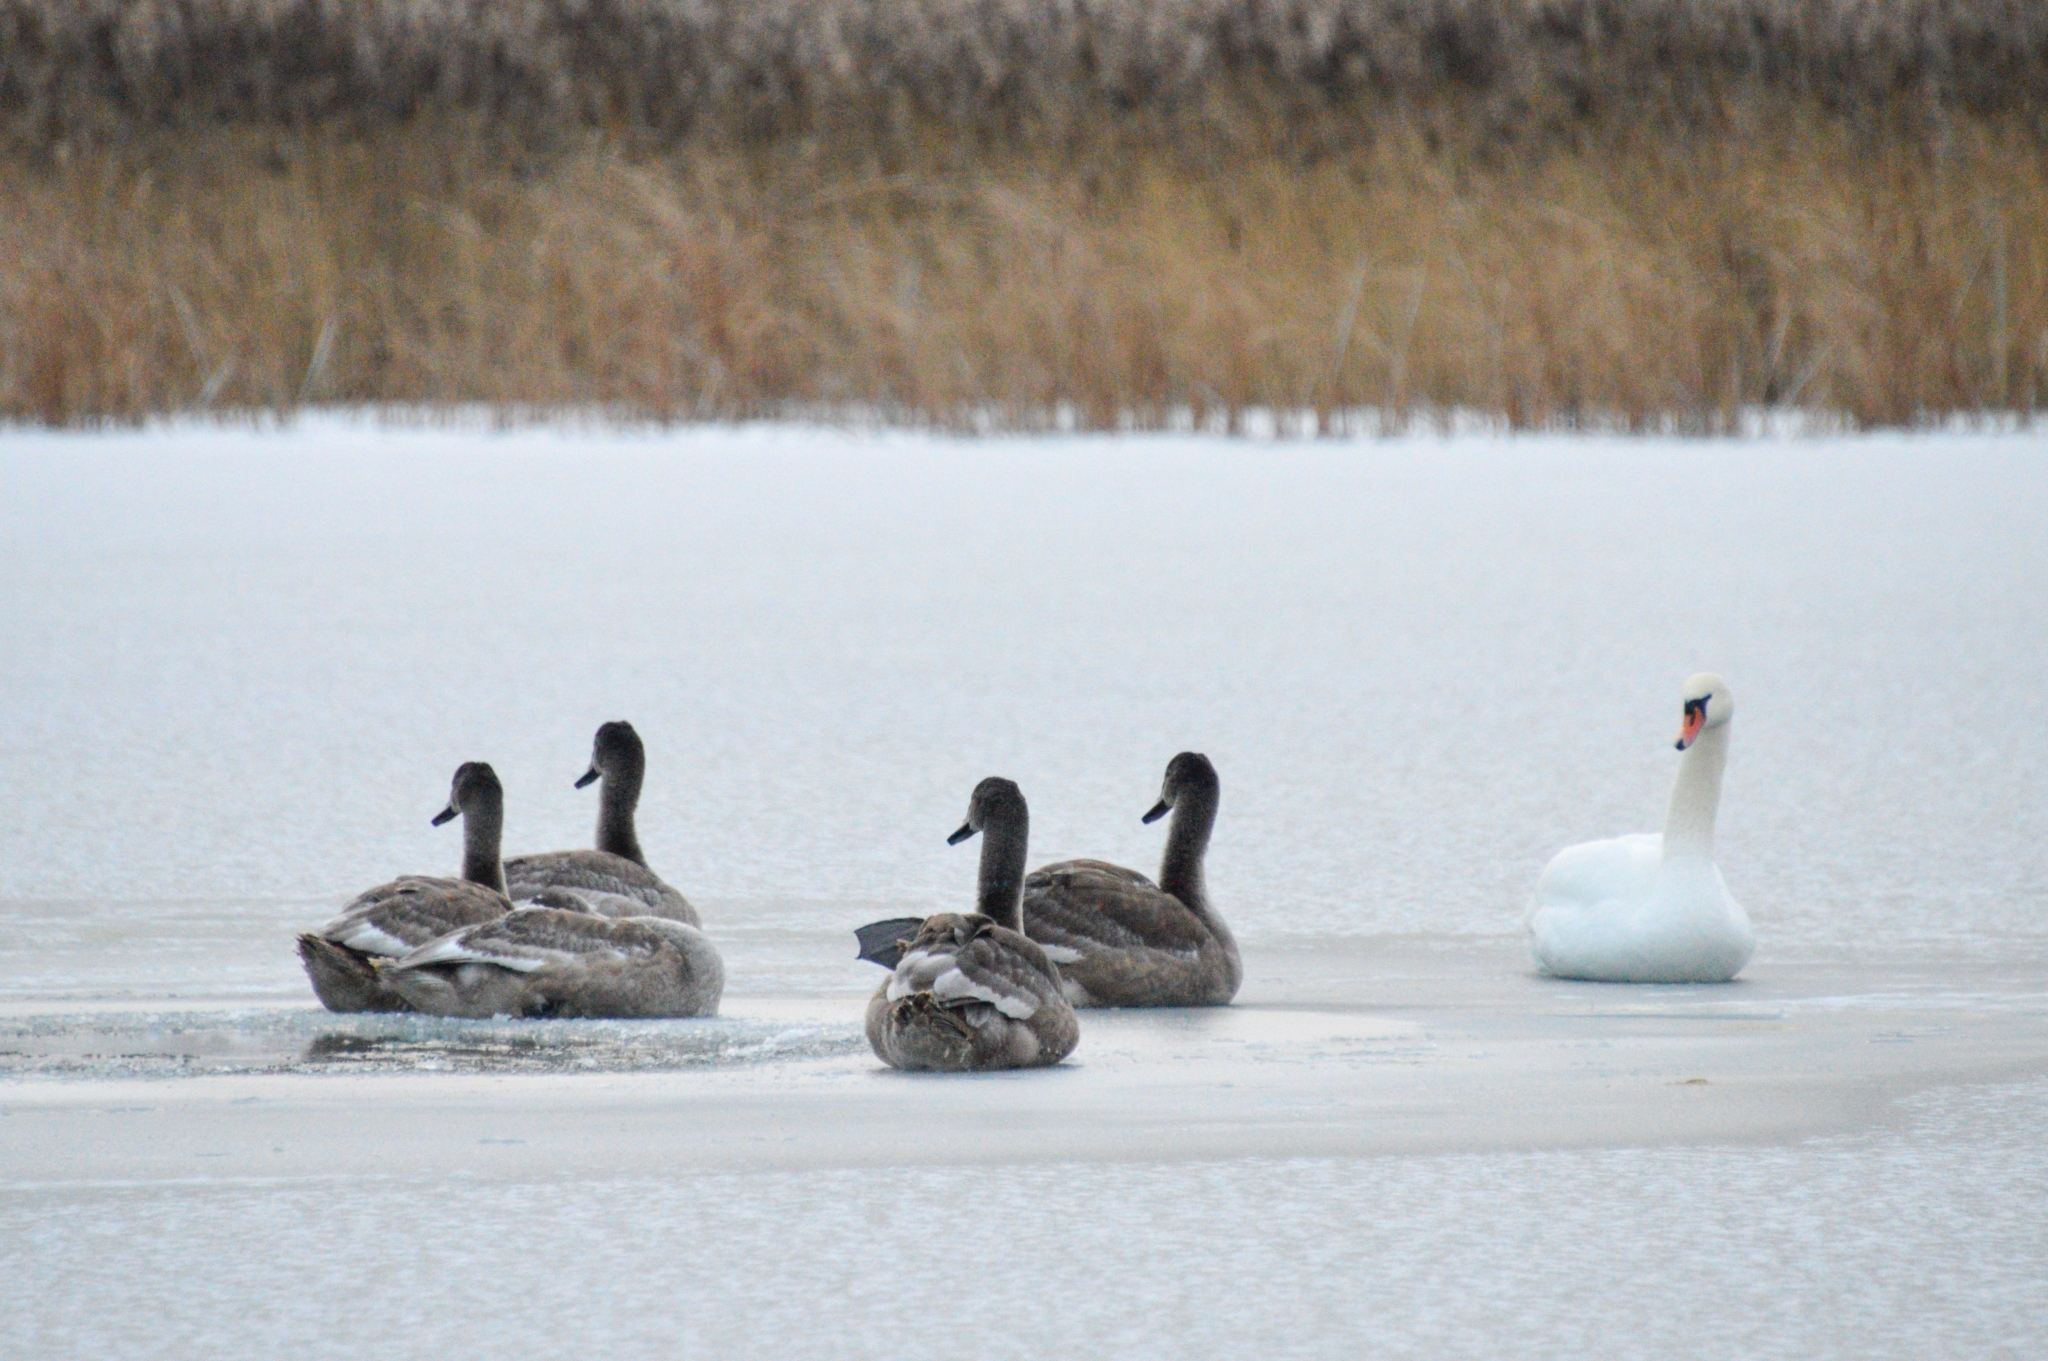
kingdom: Animalia
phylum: Chordata
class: Aves
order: Anseriformes
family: Anatidae
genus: Cygnus
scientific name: Cygnus olor
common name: Mute swan
